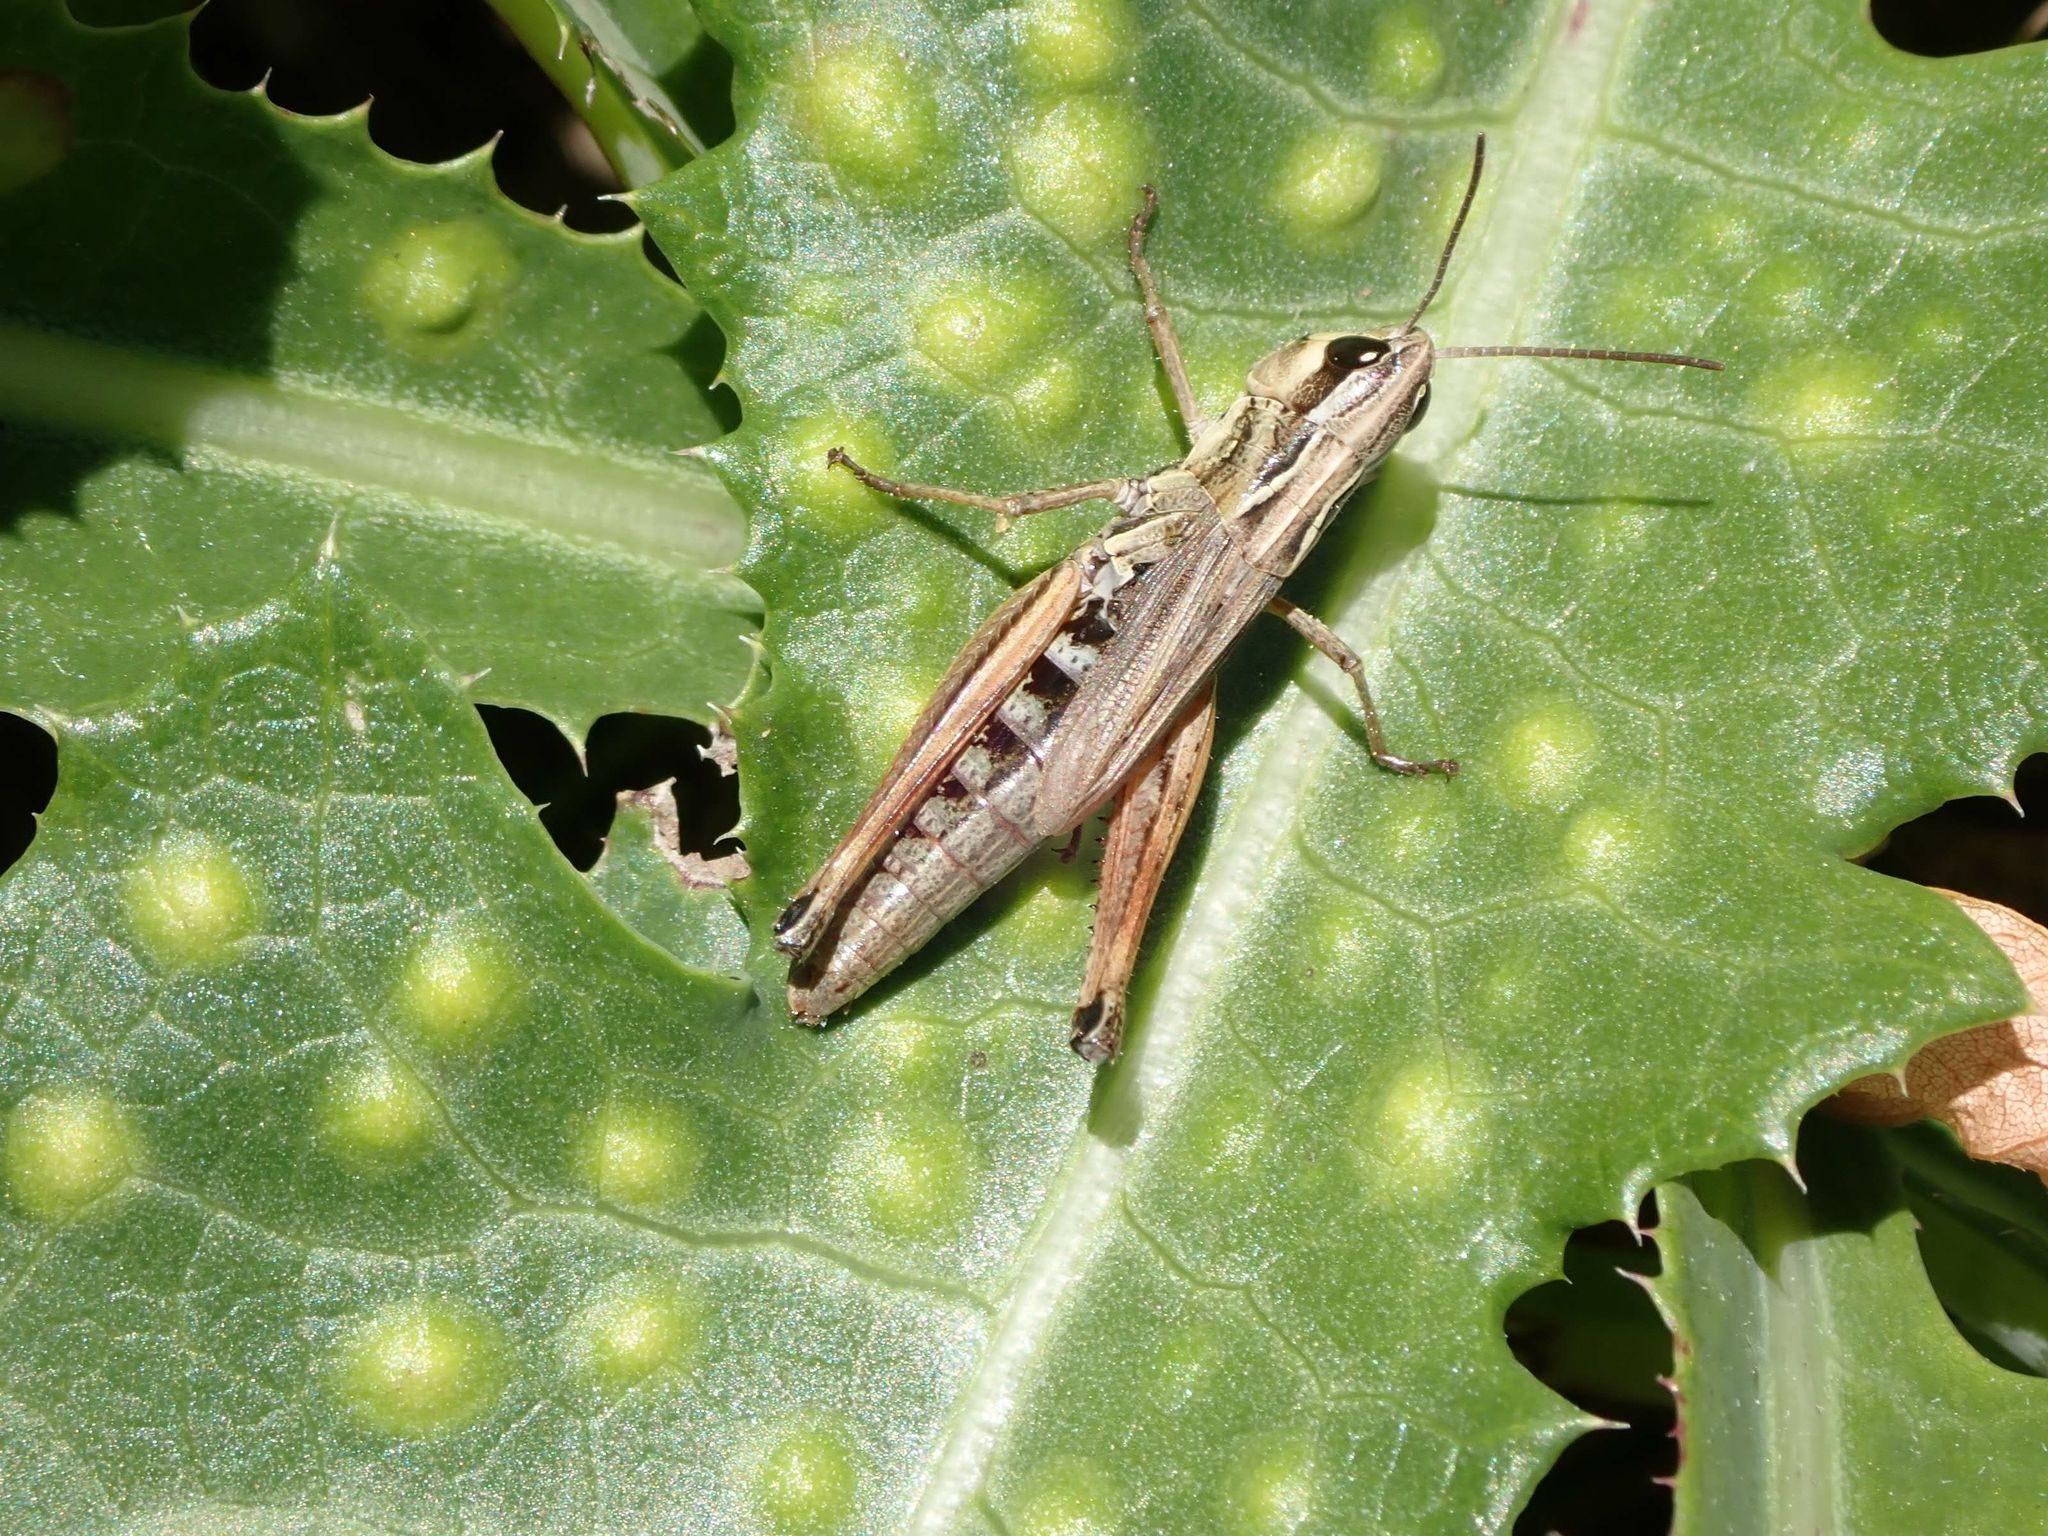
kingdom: Animalia
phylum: Arthropoda
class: Insecta
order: Orthoptera
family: Acrididae
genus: Pseudochorthippus
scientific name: Pseudochorthippus curtipennis
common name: Marsh meadow grasshopper
